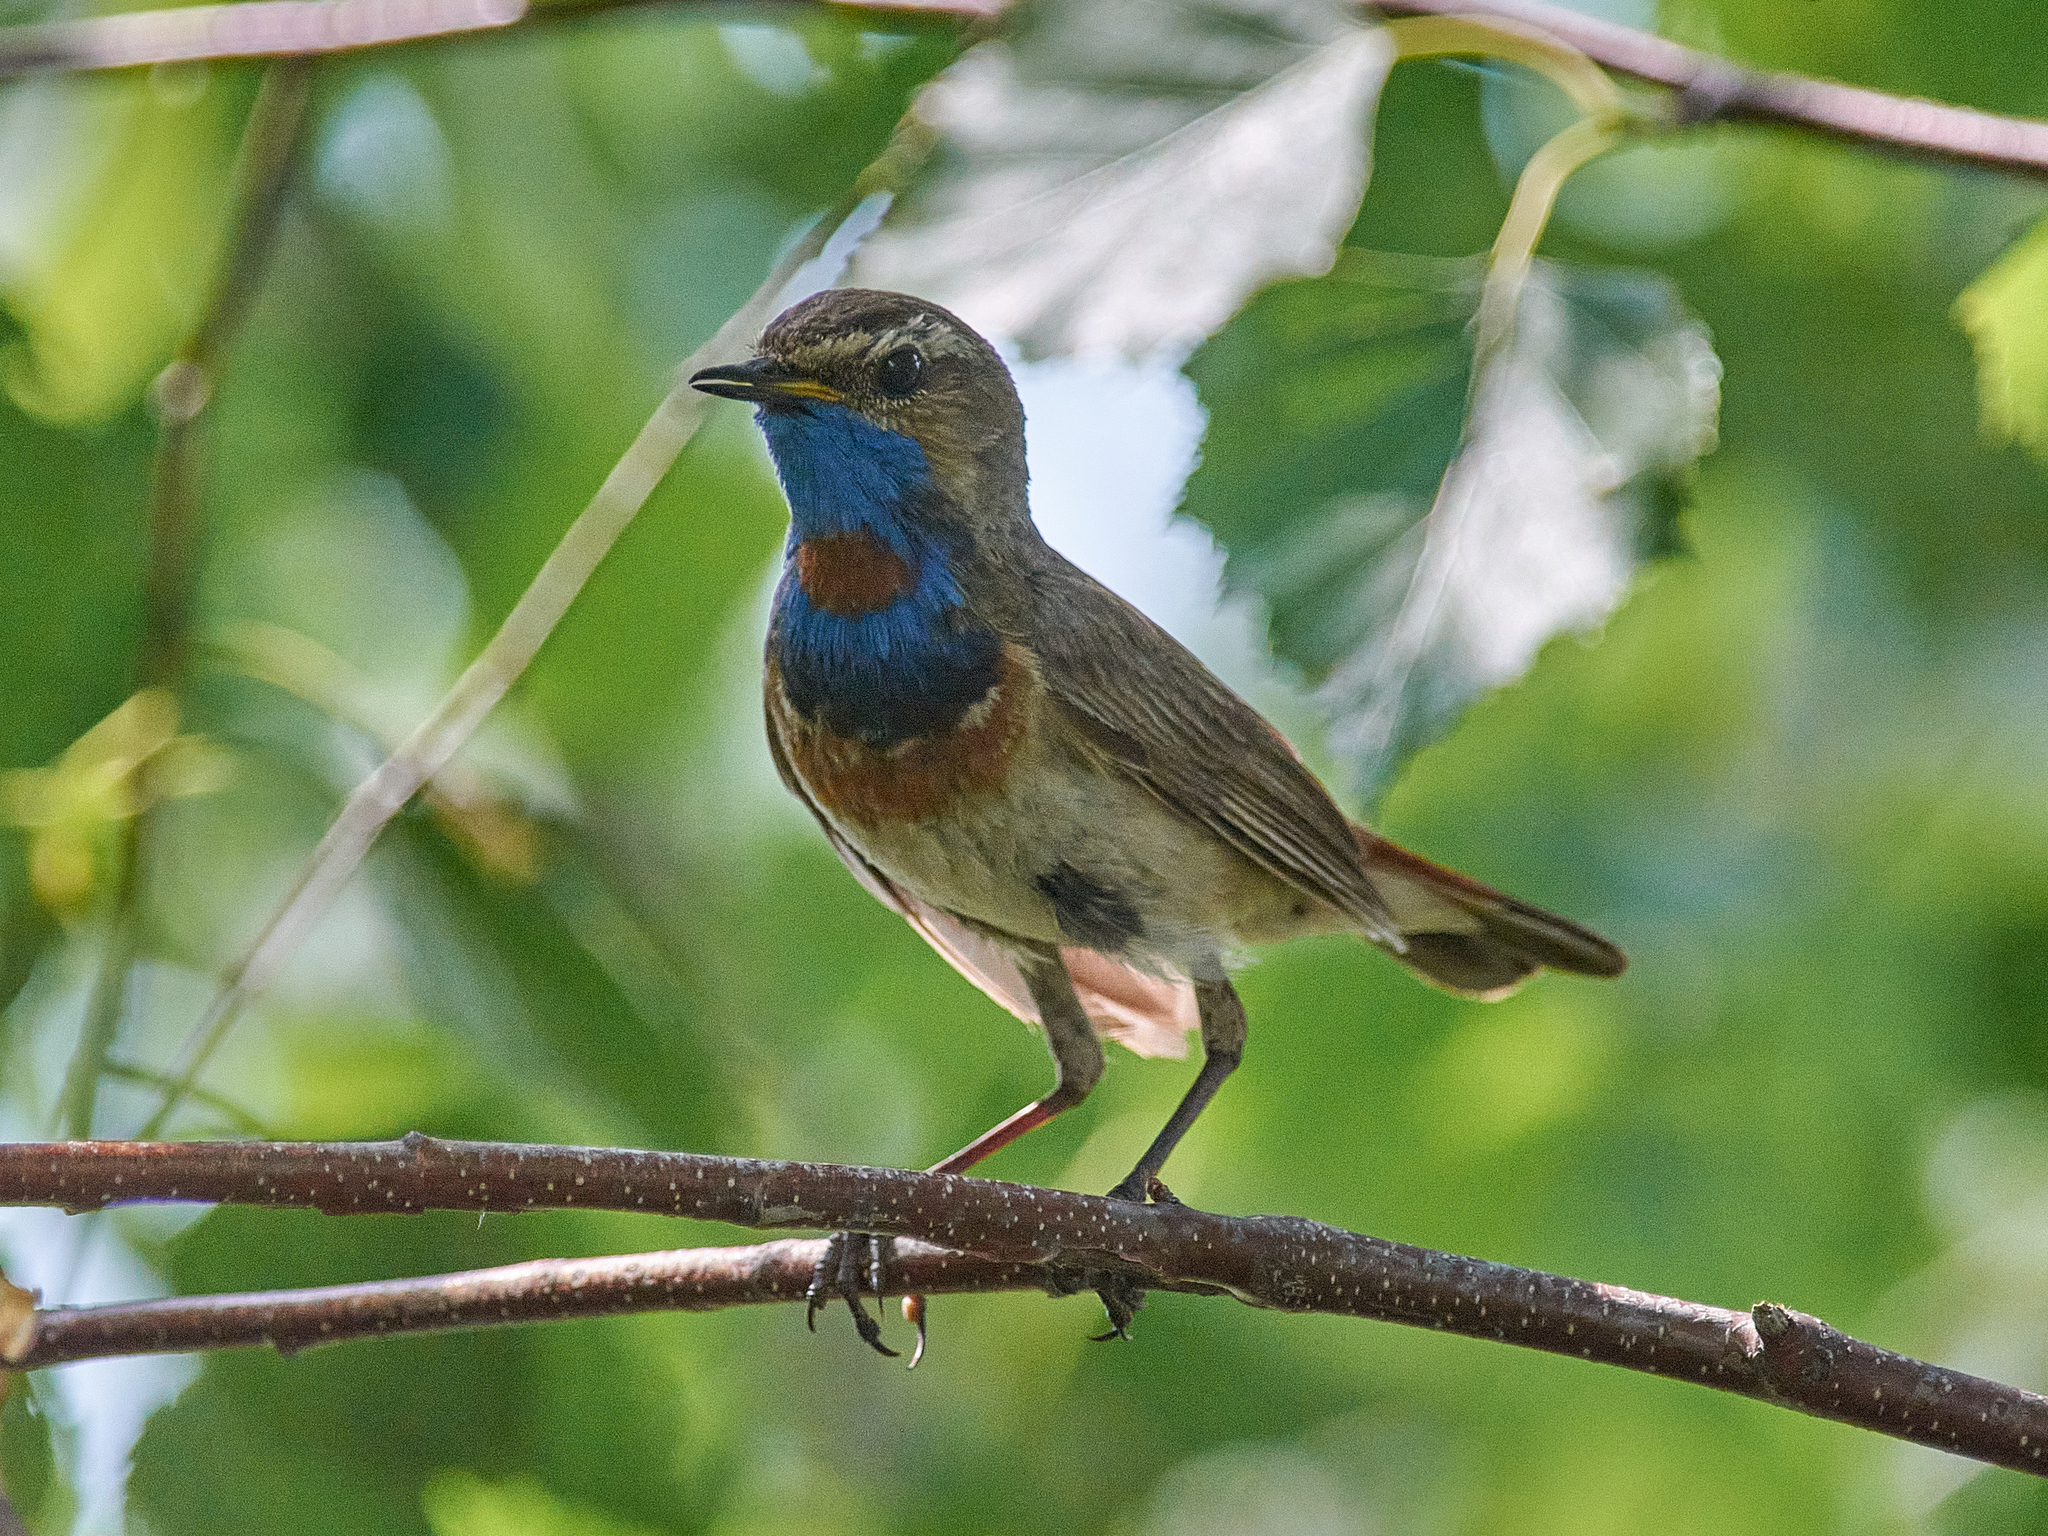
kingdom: Animalia
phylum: Chordata
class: Aves
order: Passeriformes
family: Muscicapidae
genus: Luscinia
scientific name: Luscinia svecica
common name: Bluethroat
